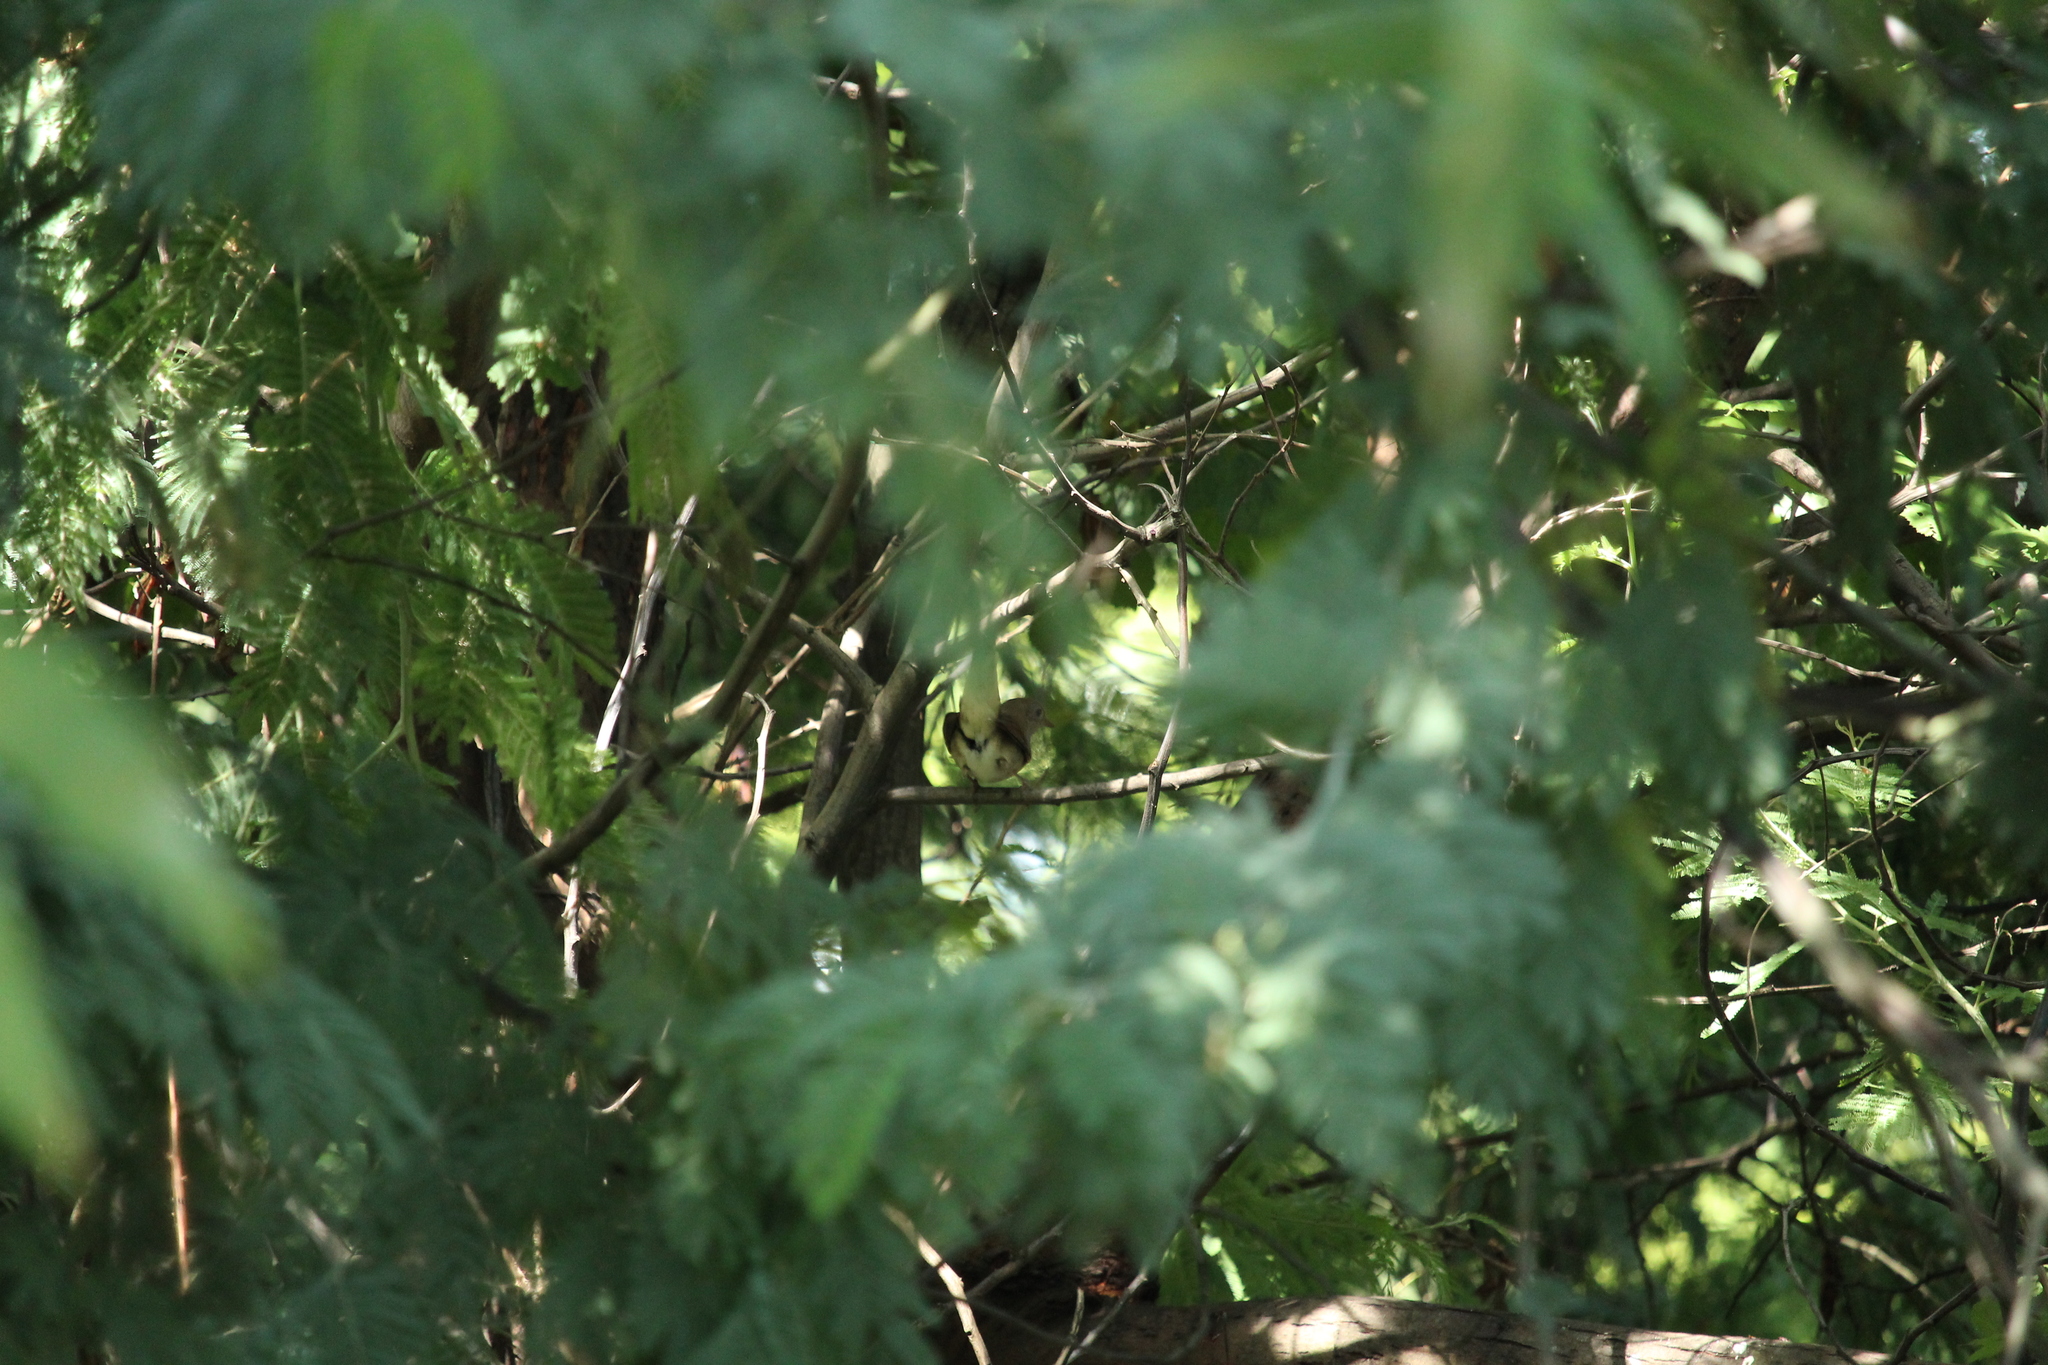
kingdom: Animalia
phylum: Chordata
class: Aves
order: Passeriformes
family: Muscicapidae
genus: Luscinia
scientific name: Luscinia megarhynchos
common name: Common nightingale
